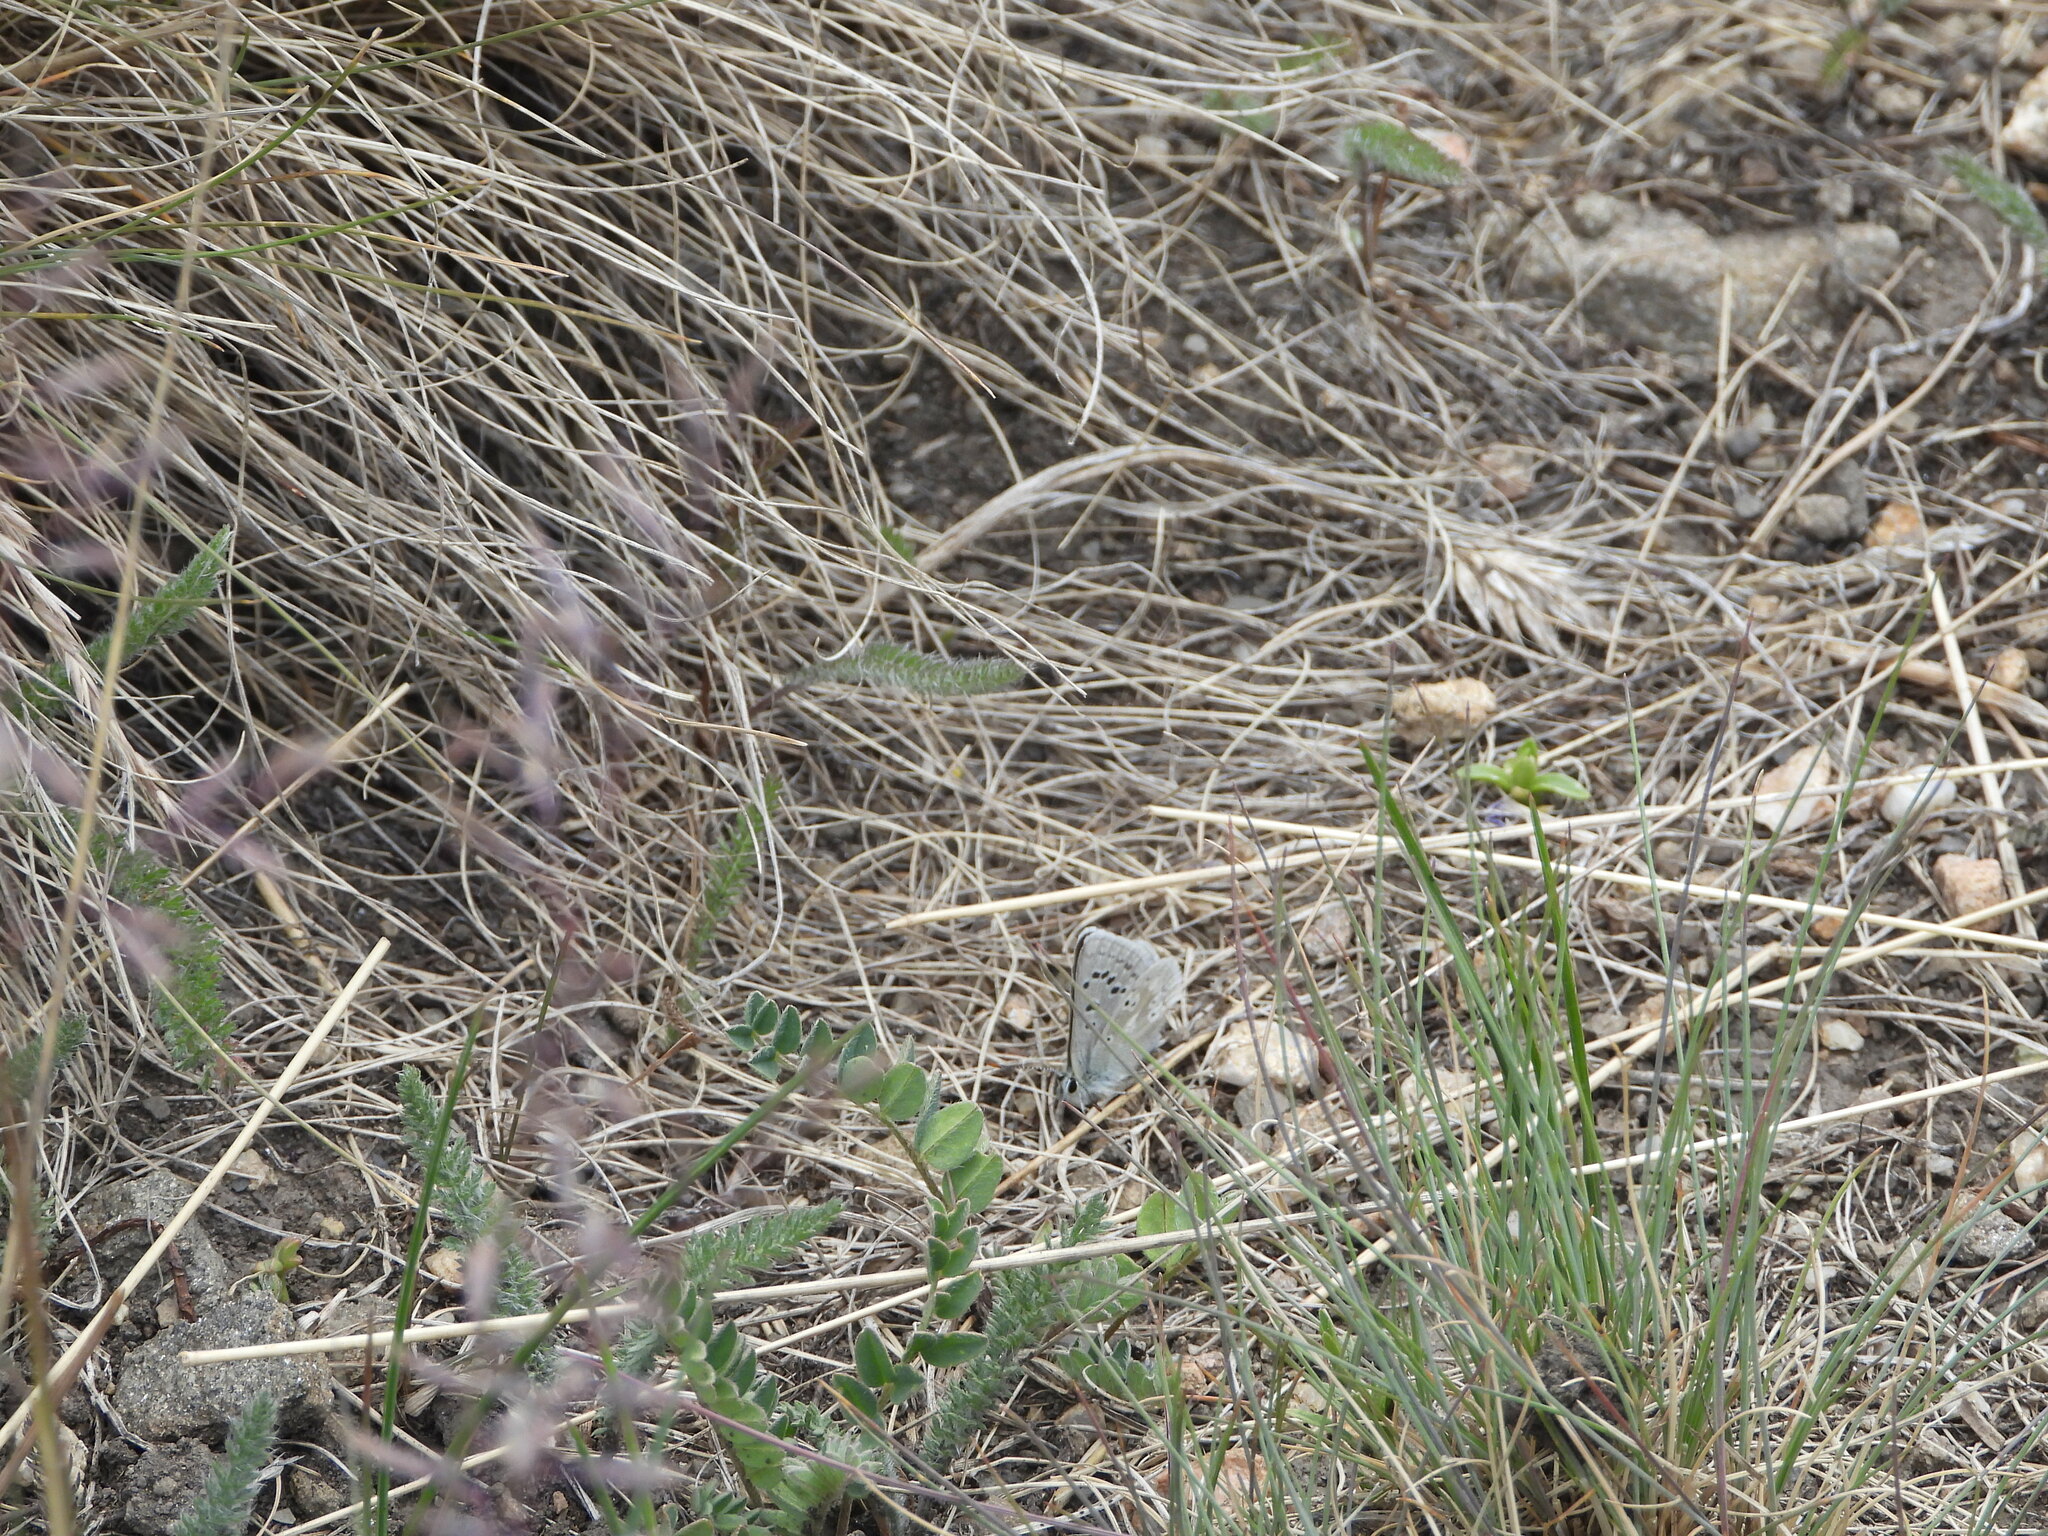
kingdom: Animalia
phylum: Arthropoda
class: Insecta
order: Lepidoptera
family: Lycaenidae
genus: Agriades
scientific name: Agriades glandon
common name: Glandon blue
